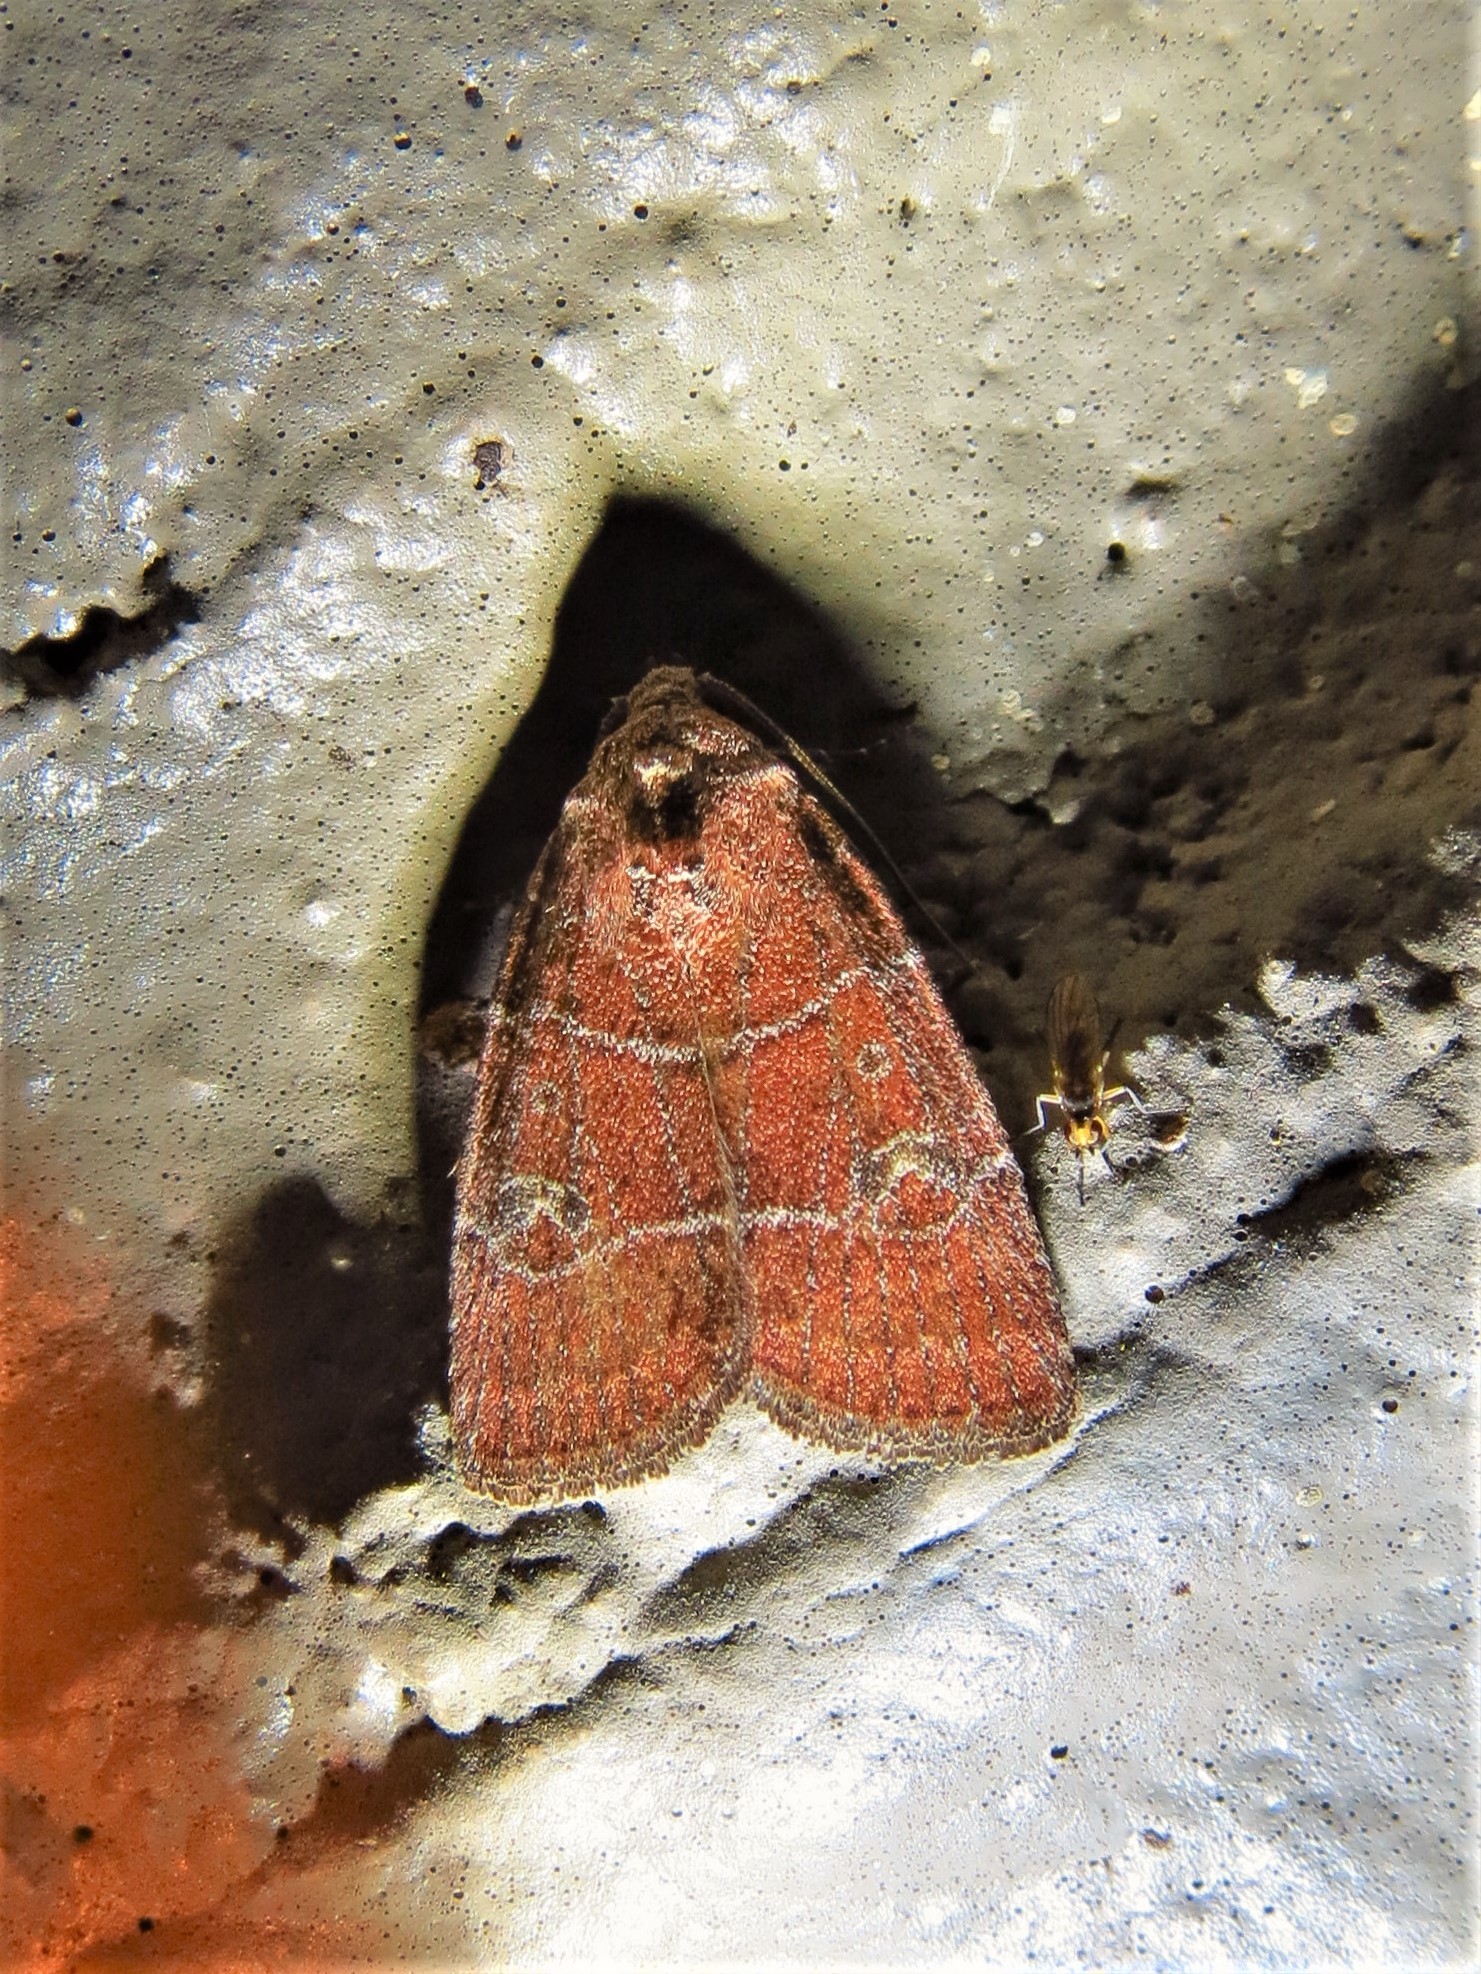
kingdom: Animalia
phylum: Arthropoda
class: Insecta
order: Lepidoptera
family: Noctuidae
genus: Elaphria
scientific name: Elaphria grata
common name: Grateful midget moth
